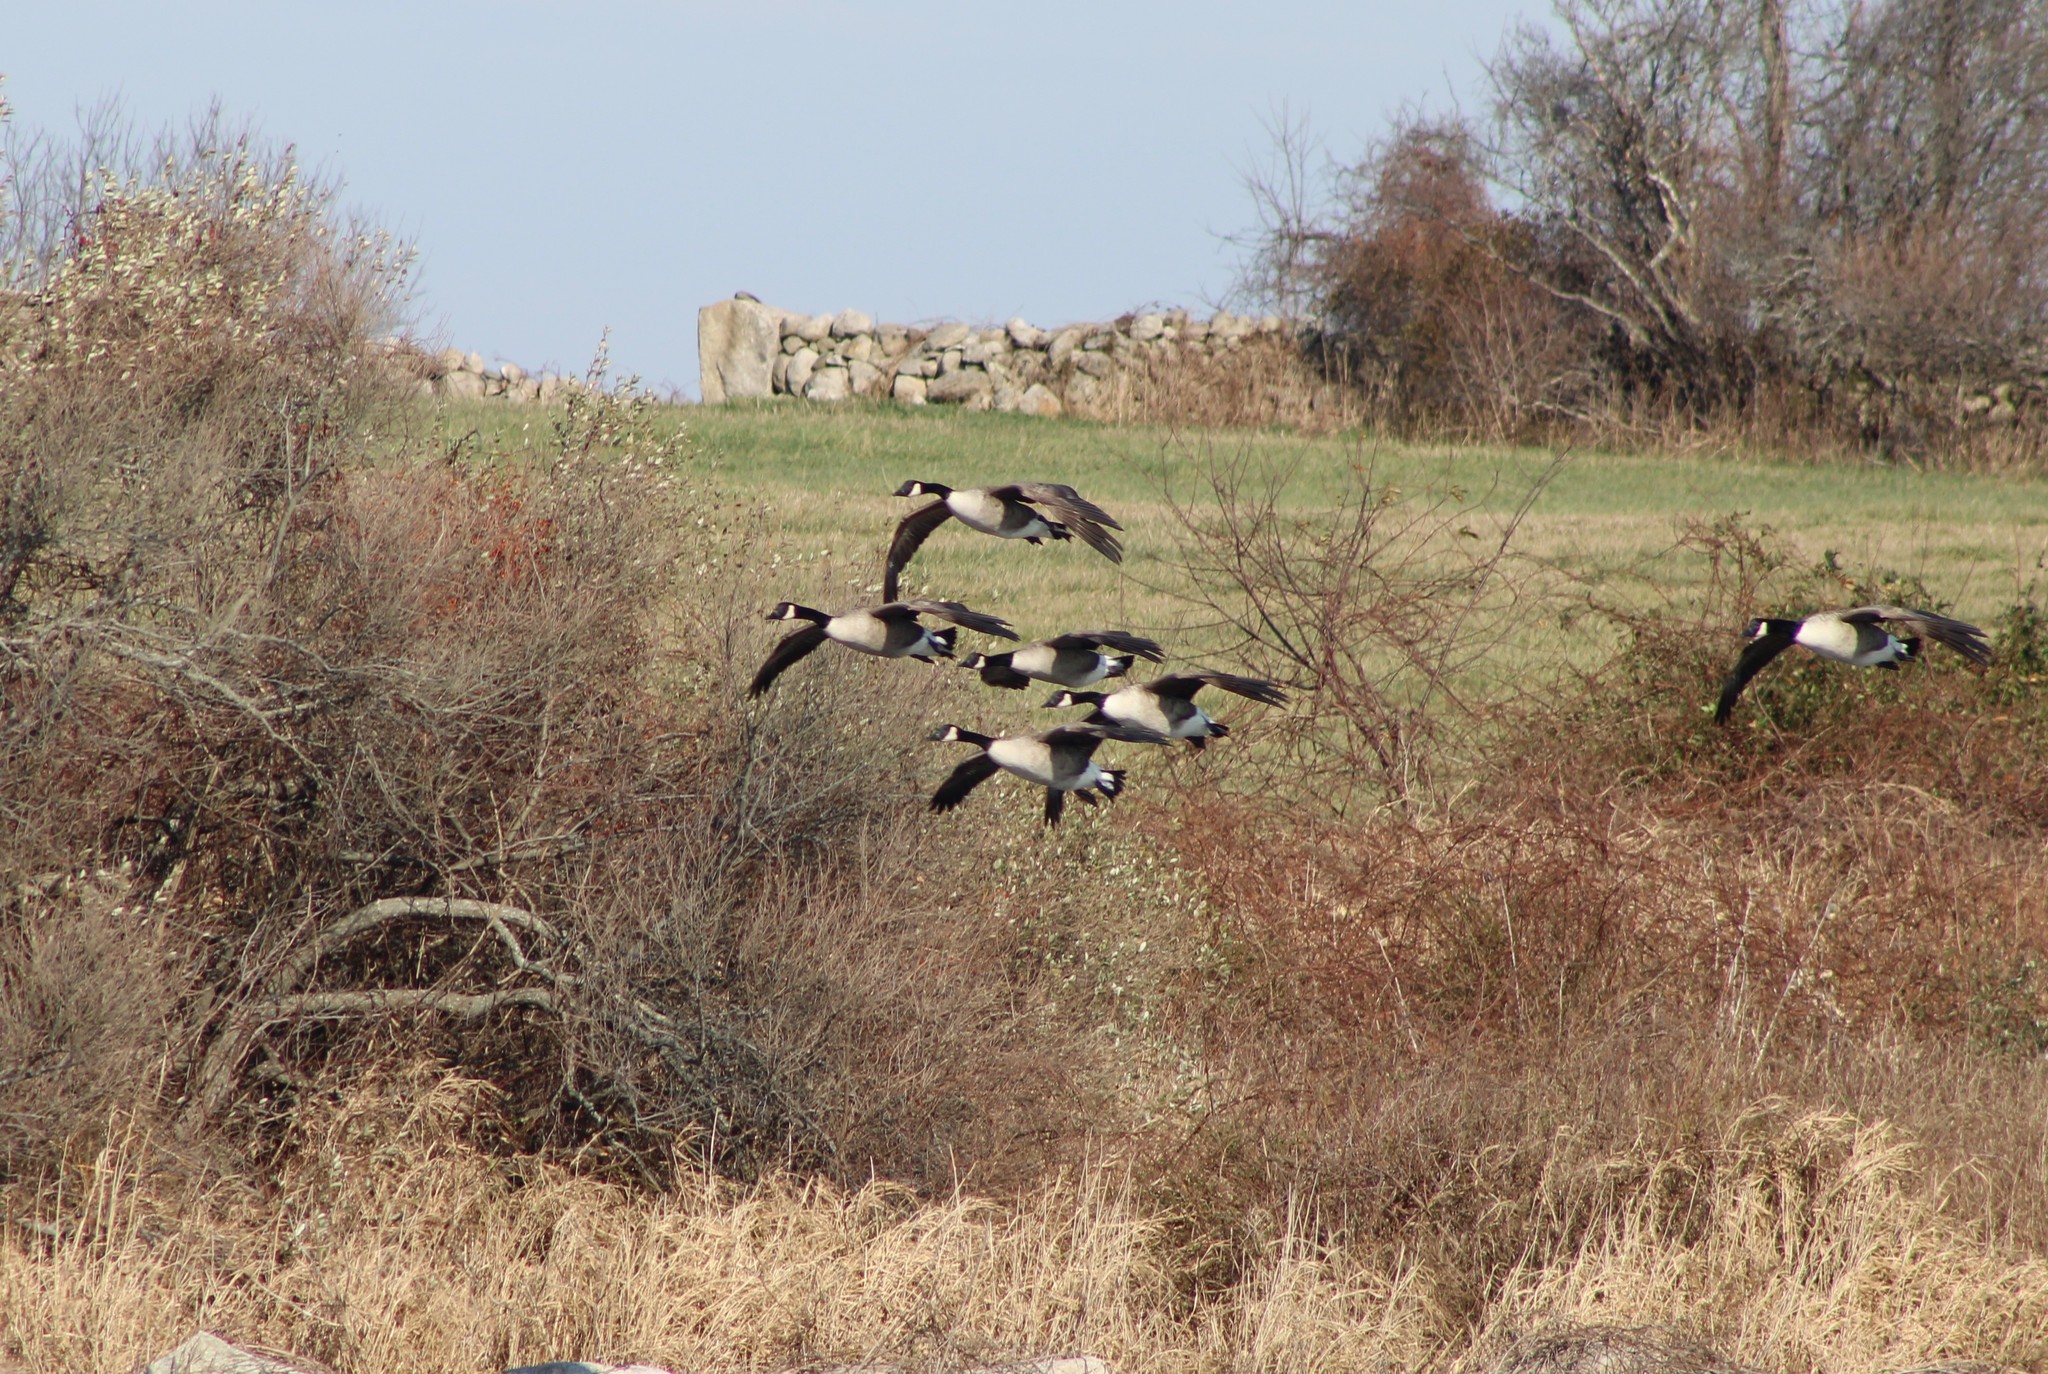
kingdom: Animalia
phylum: Chordata
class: Aves
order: Anseriformes
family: Anatidae
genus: Branta
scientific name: Branta canadensis
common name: Canada goose
